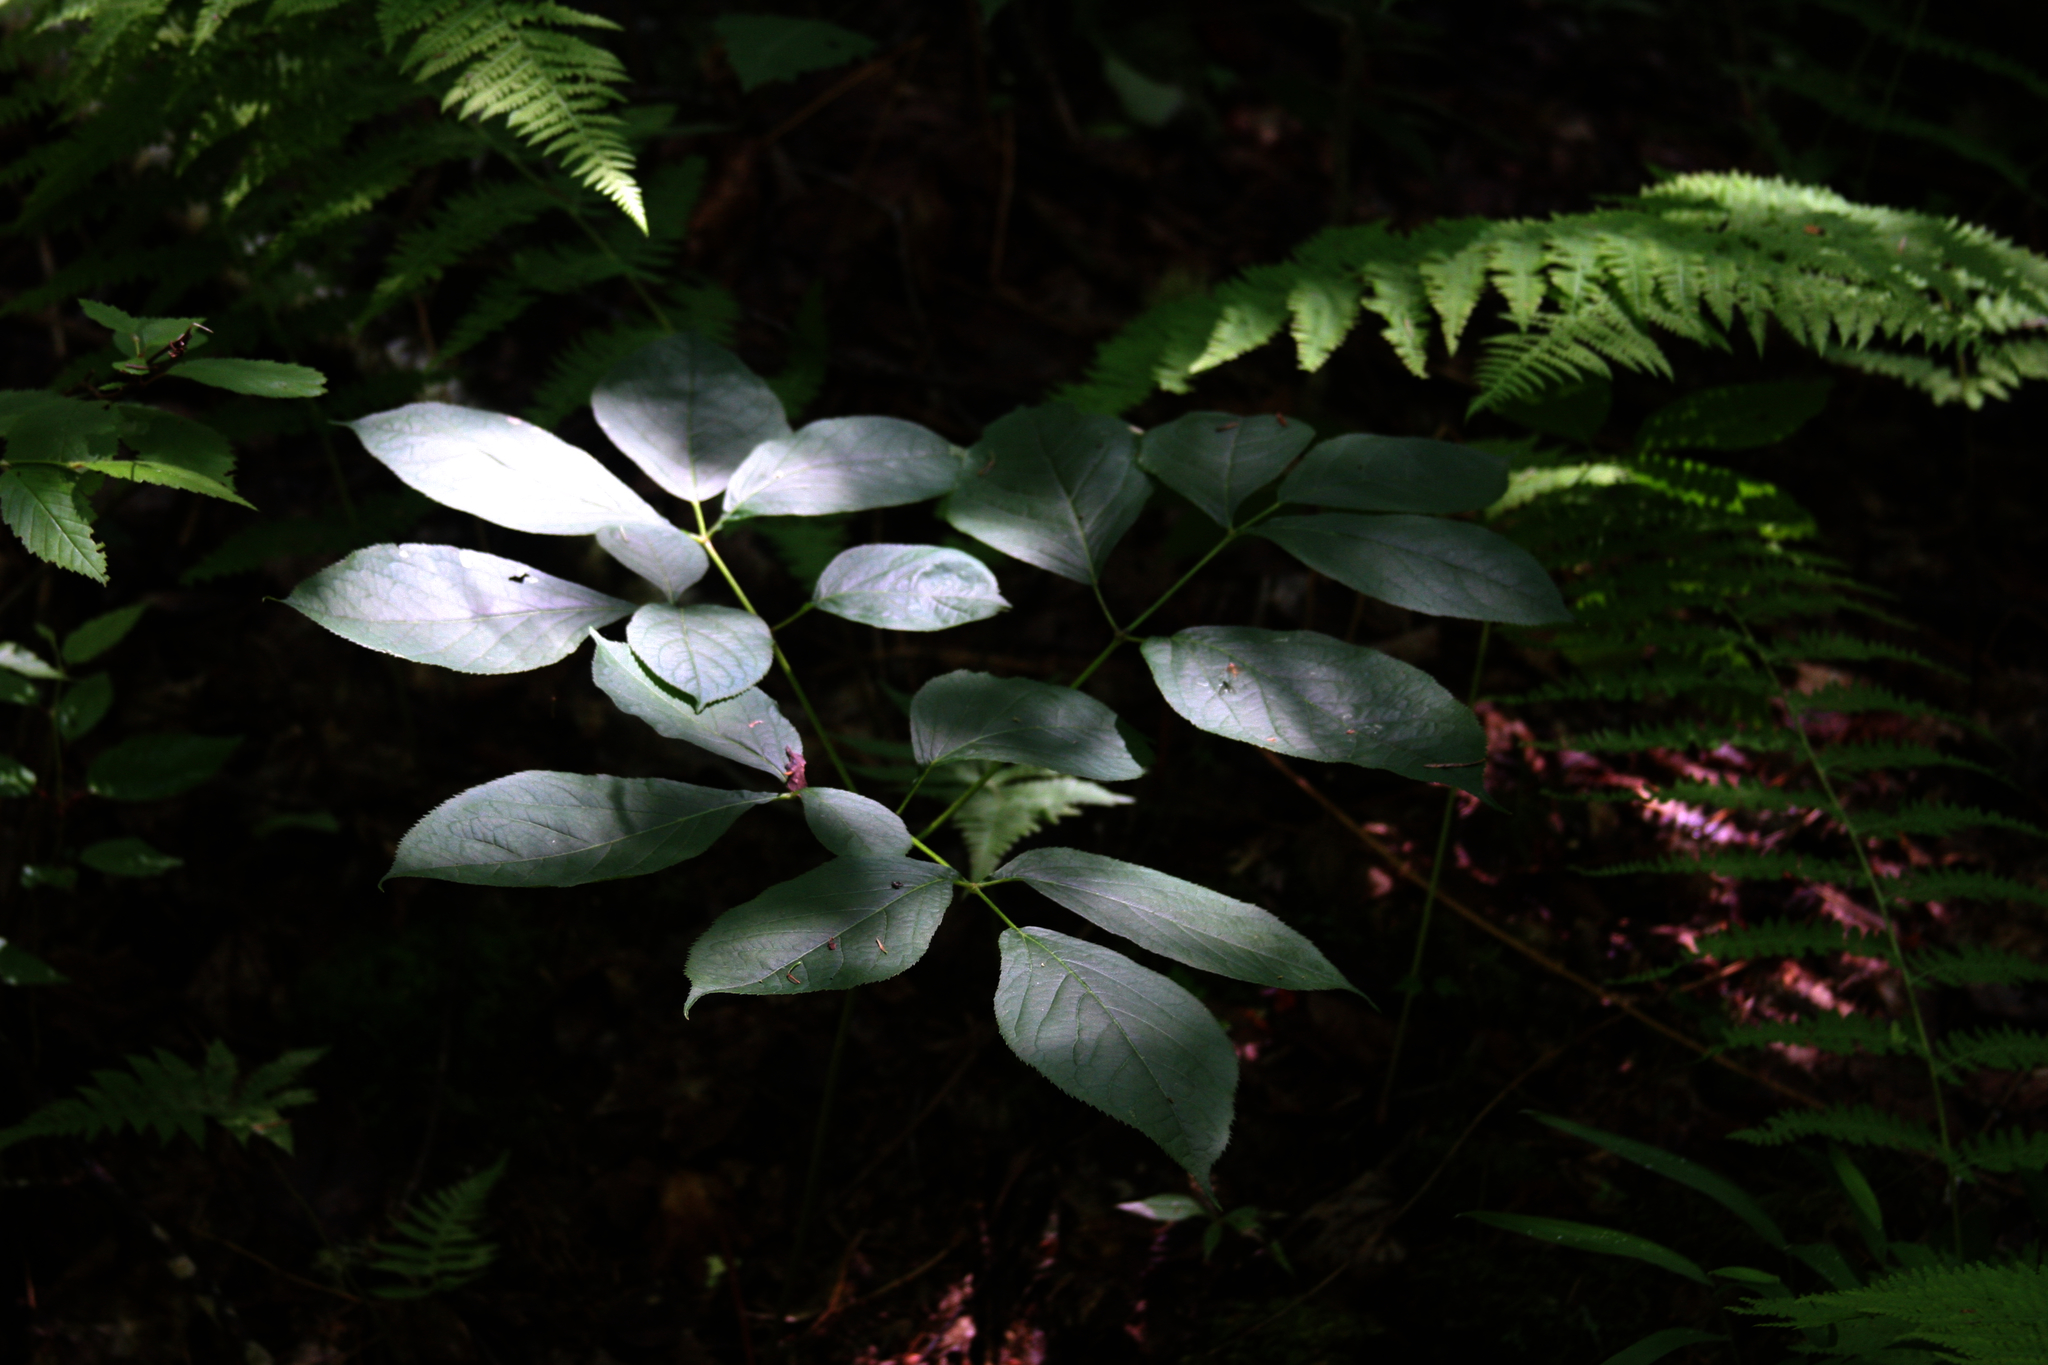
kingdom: Plantae
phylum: Tracheophyta
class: Magnoliopsida
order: Apiales
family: Araliaceae
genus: Aralia
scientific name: Aralia nudicaulis
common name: Wild sarsaparilla
